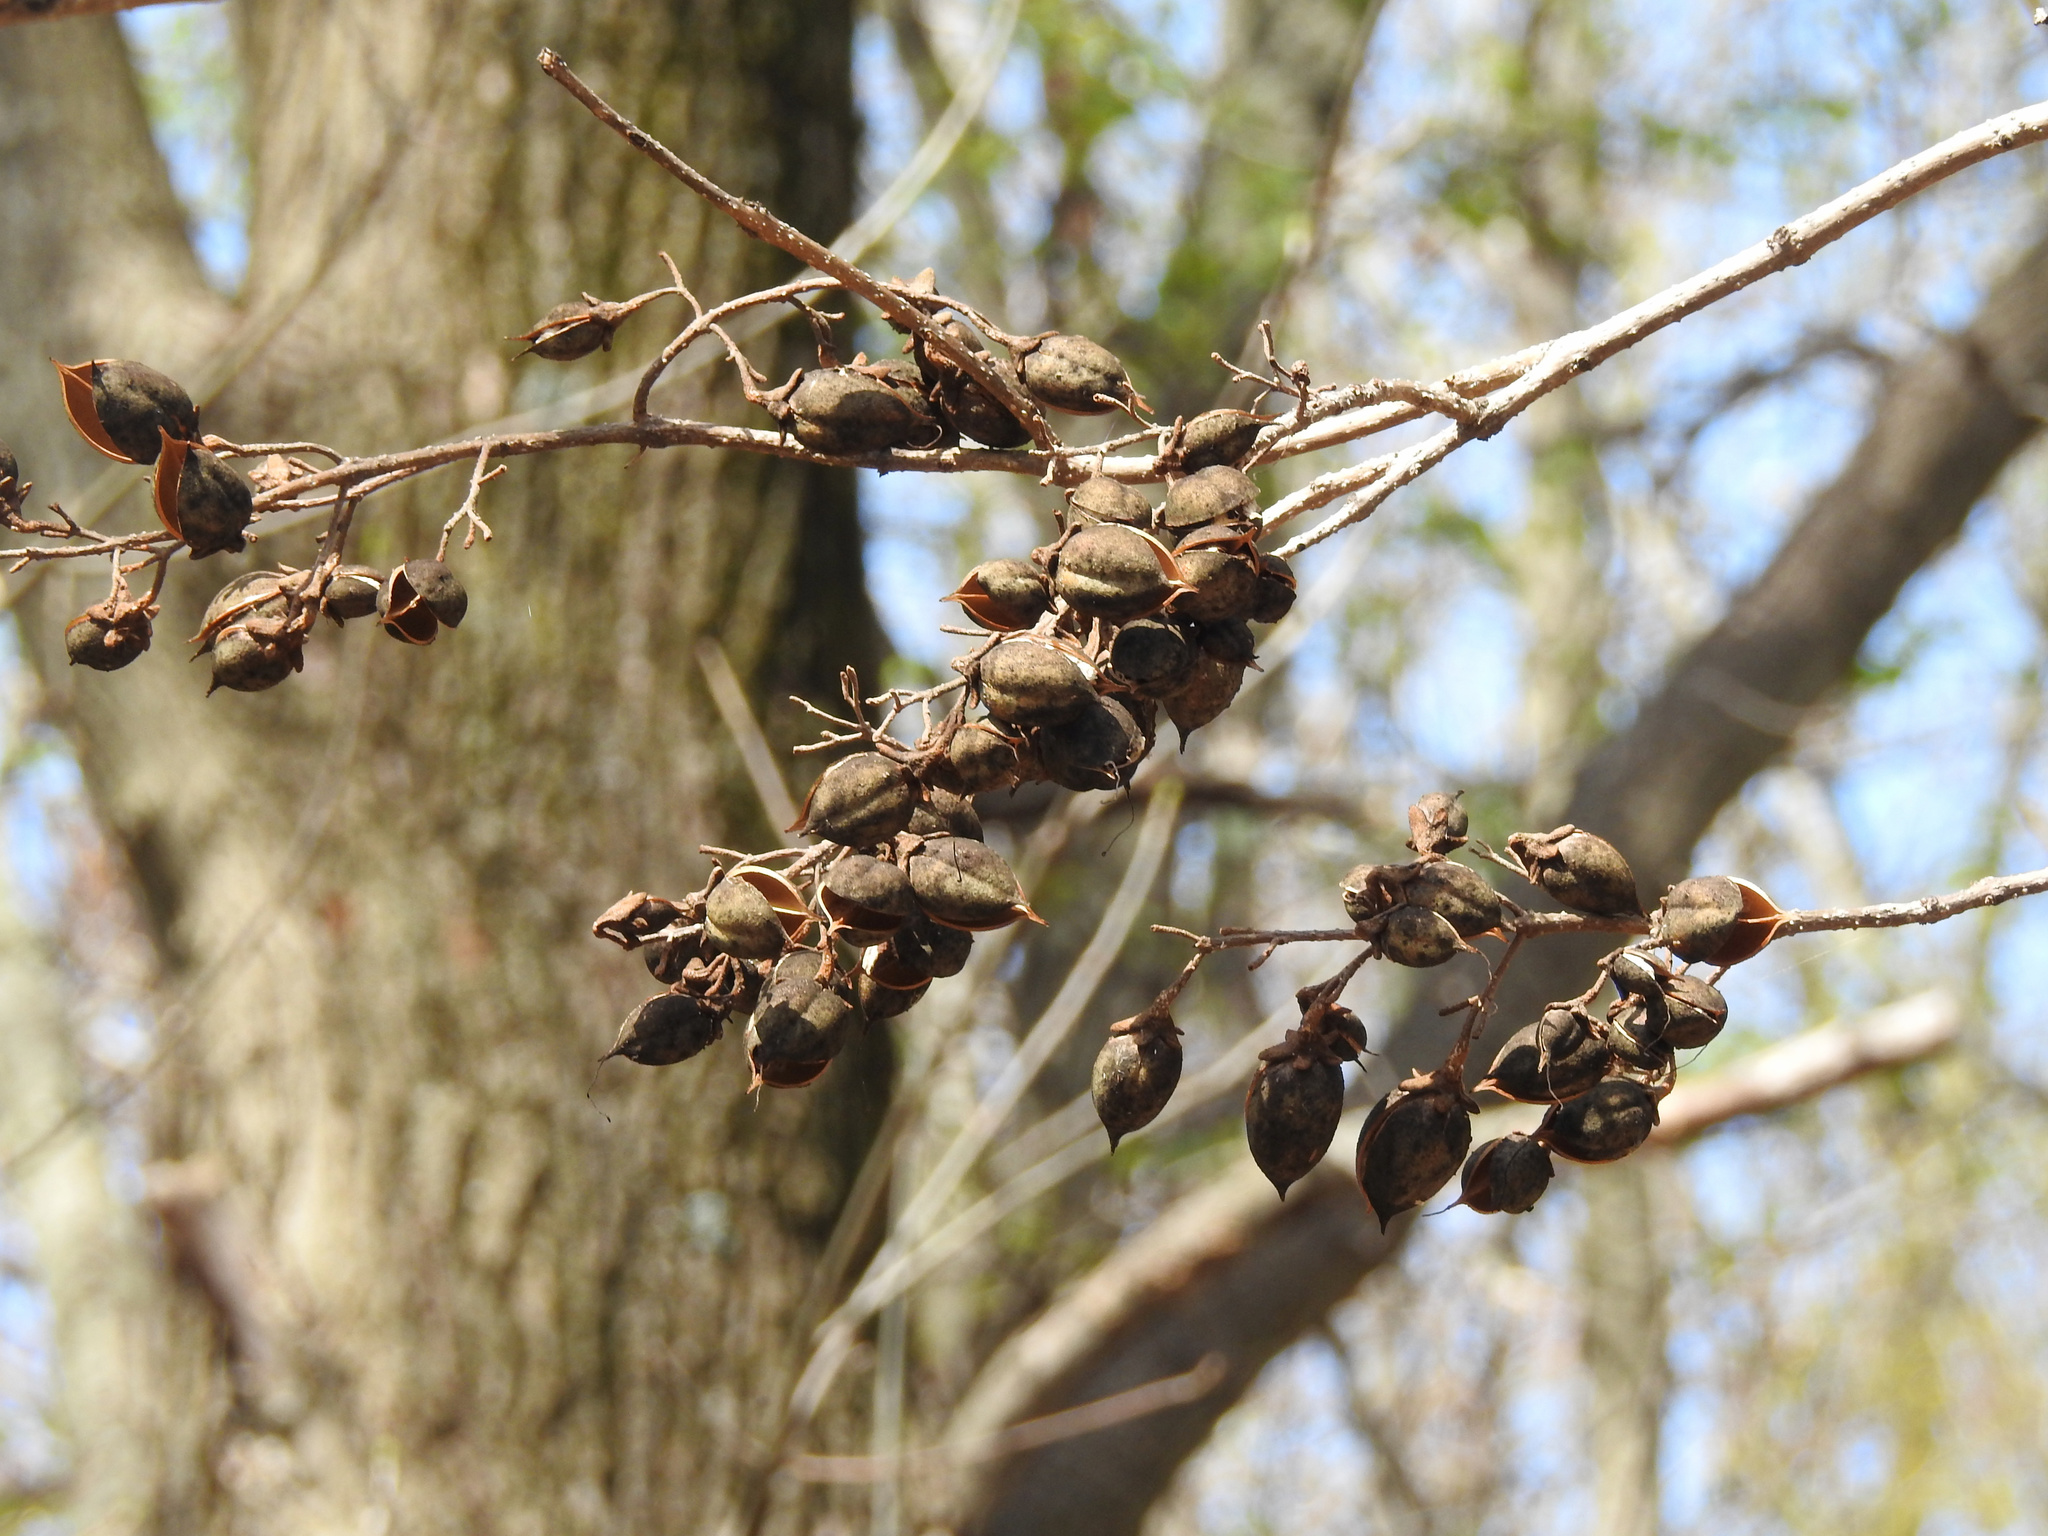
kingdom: Plantae
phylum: Tracheophyta
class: Magnoliopsida
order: Lamiales
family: Paulowniaceae
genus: Paulownia
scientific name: Paulownia tomentosa
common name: Foxglove-tree
